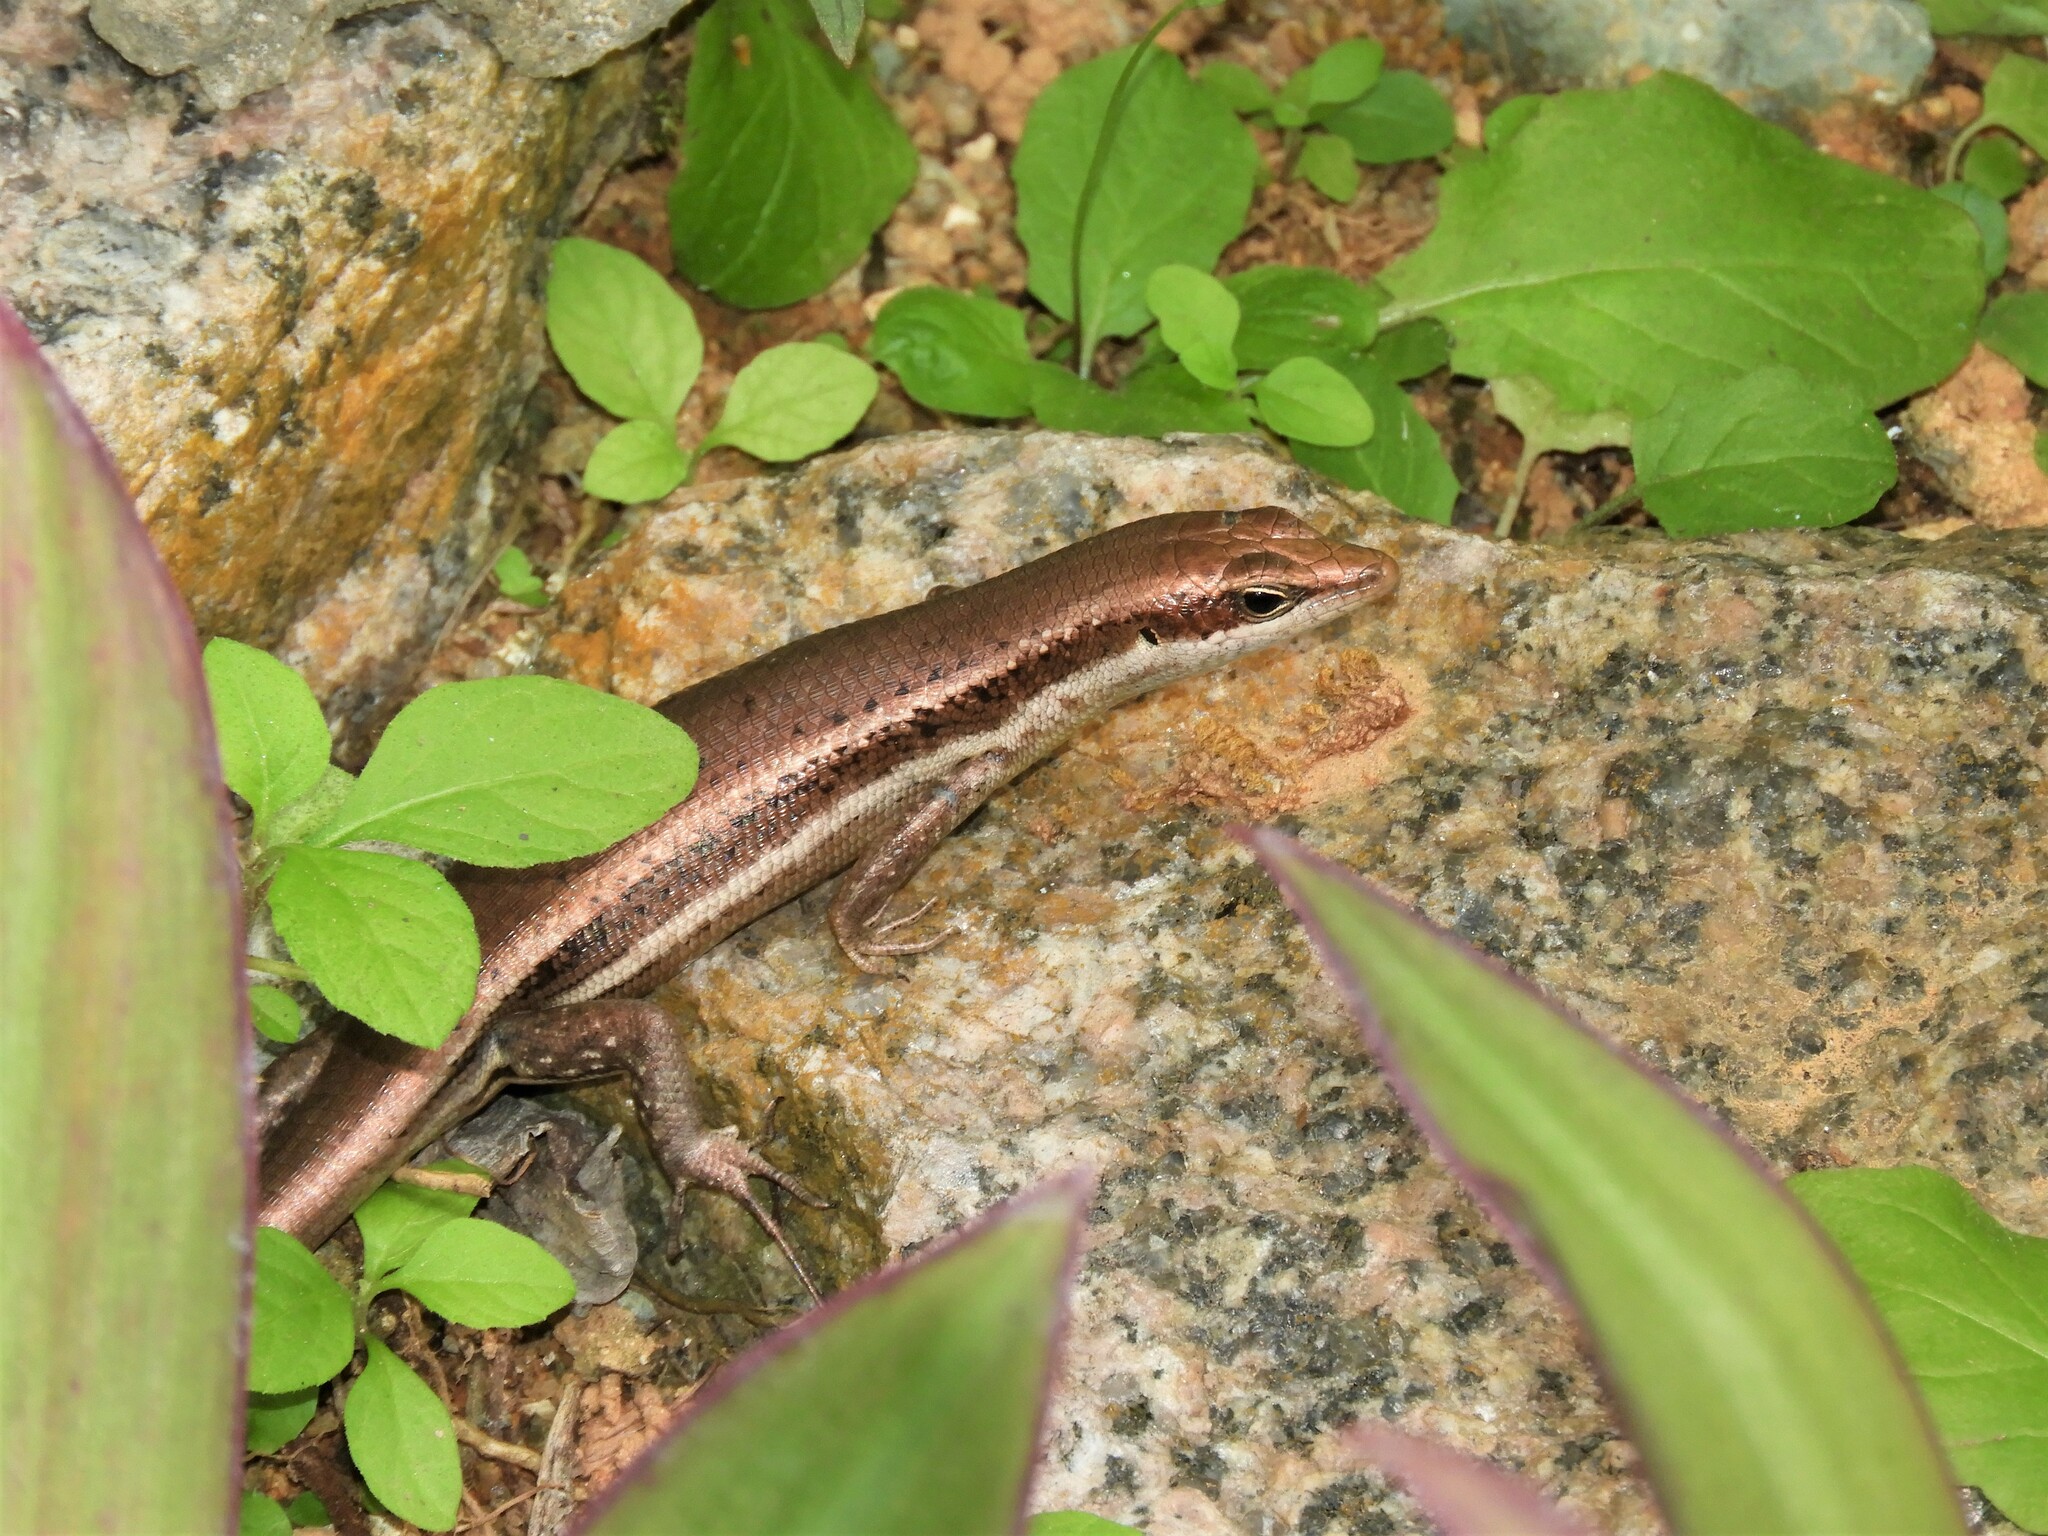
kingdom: Animalia
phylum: Chordata
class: Squamata
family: Scincidae
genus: Trachylepis
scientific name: Trachylepis sechellensis
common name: Seychelles skink
